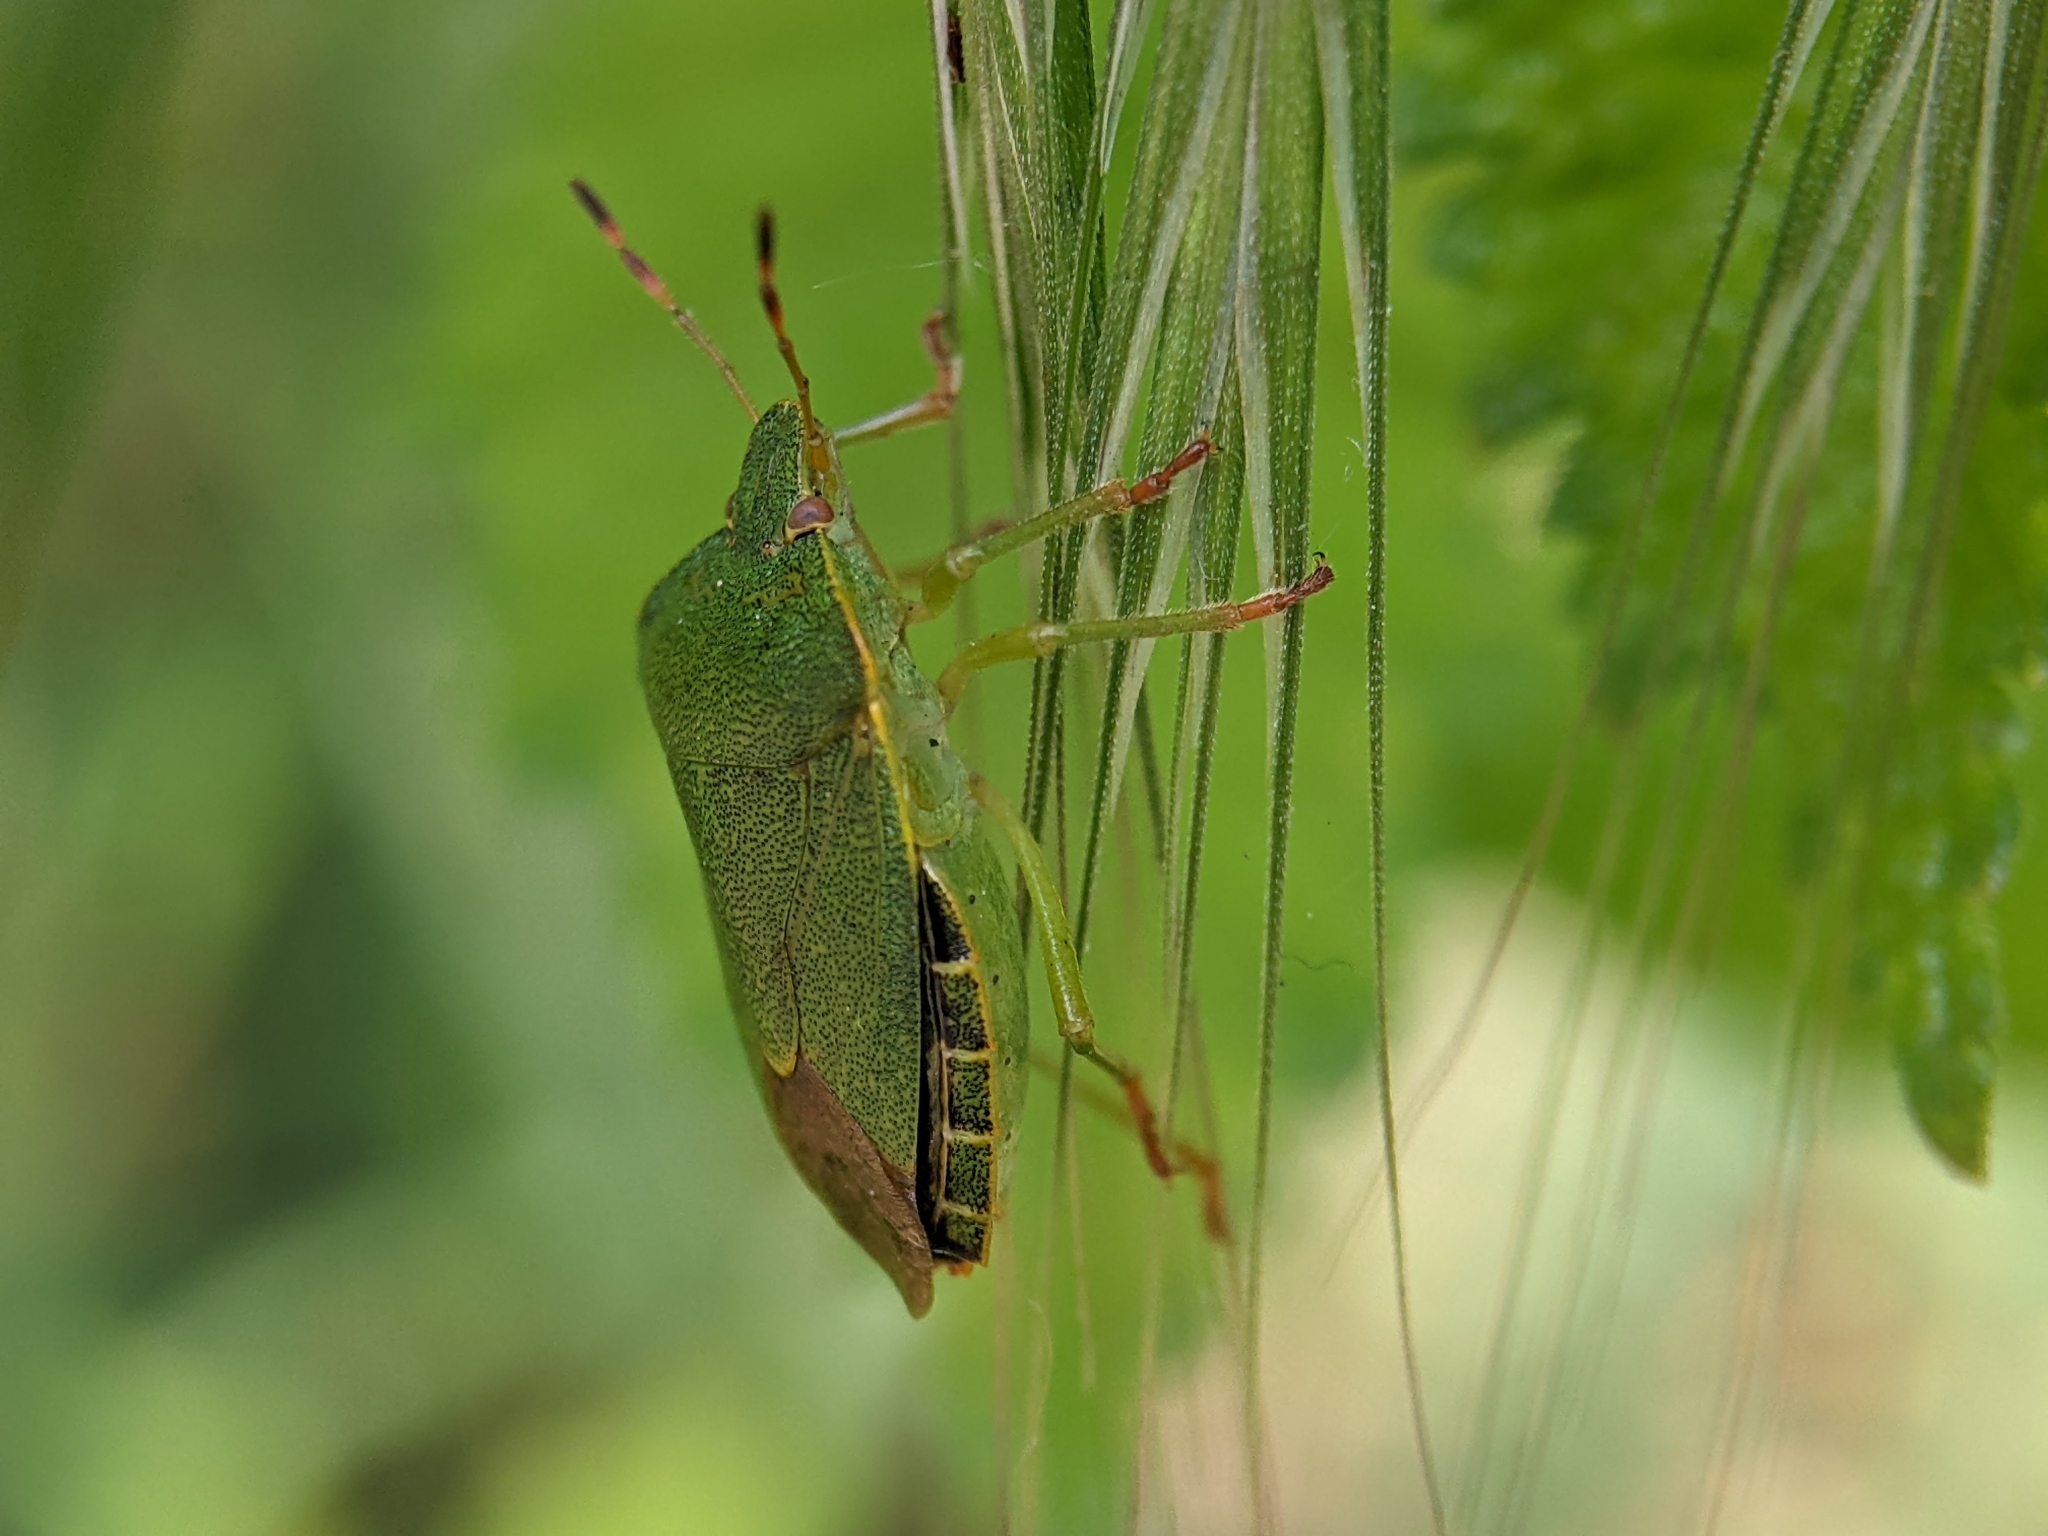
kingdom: Animalia
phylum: Arthropoda
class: Insecta
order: Hemiptera
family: Pentatomidae
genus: Palomena
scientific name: Palomena prasina
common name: Green shieldbug
